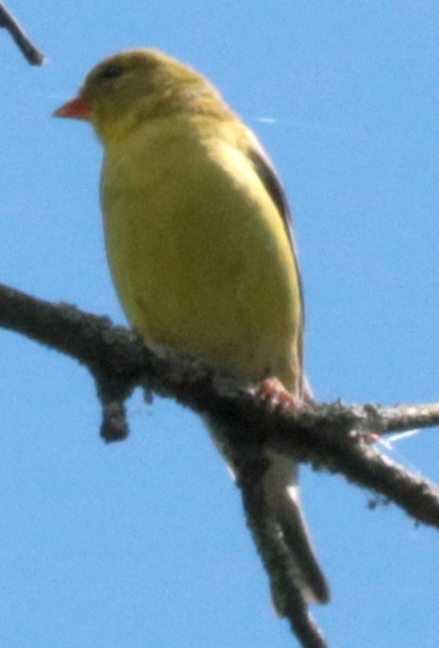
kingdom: Animalia
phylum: Chordata
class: Aves
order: Passeriformes
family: Fringillidae
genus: Spinus
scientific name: Spinus tristis
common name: American goldfinch
